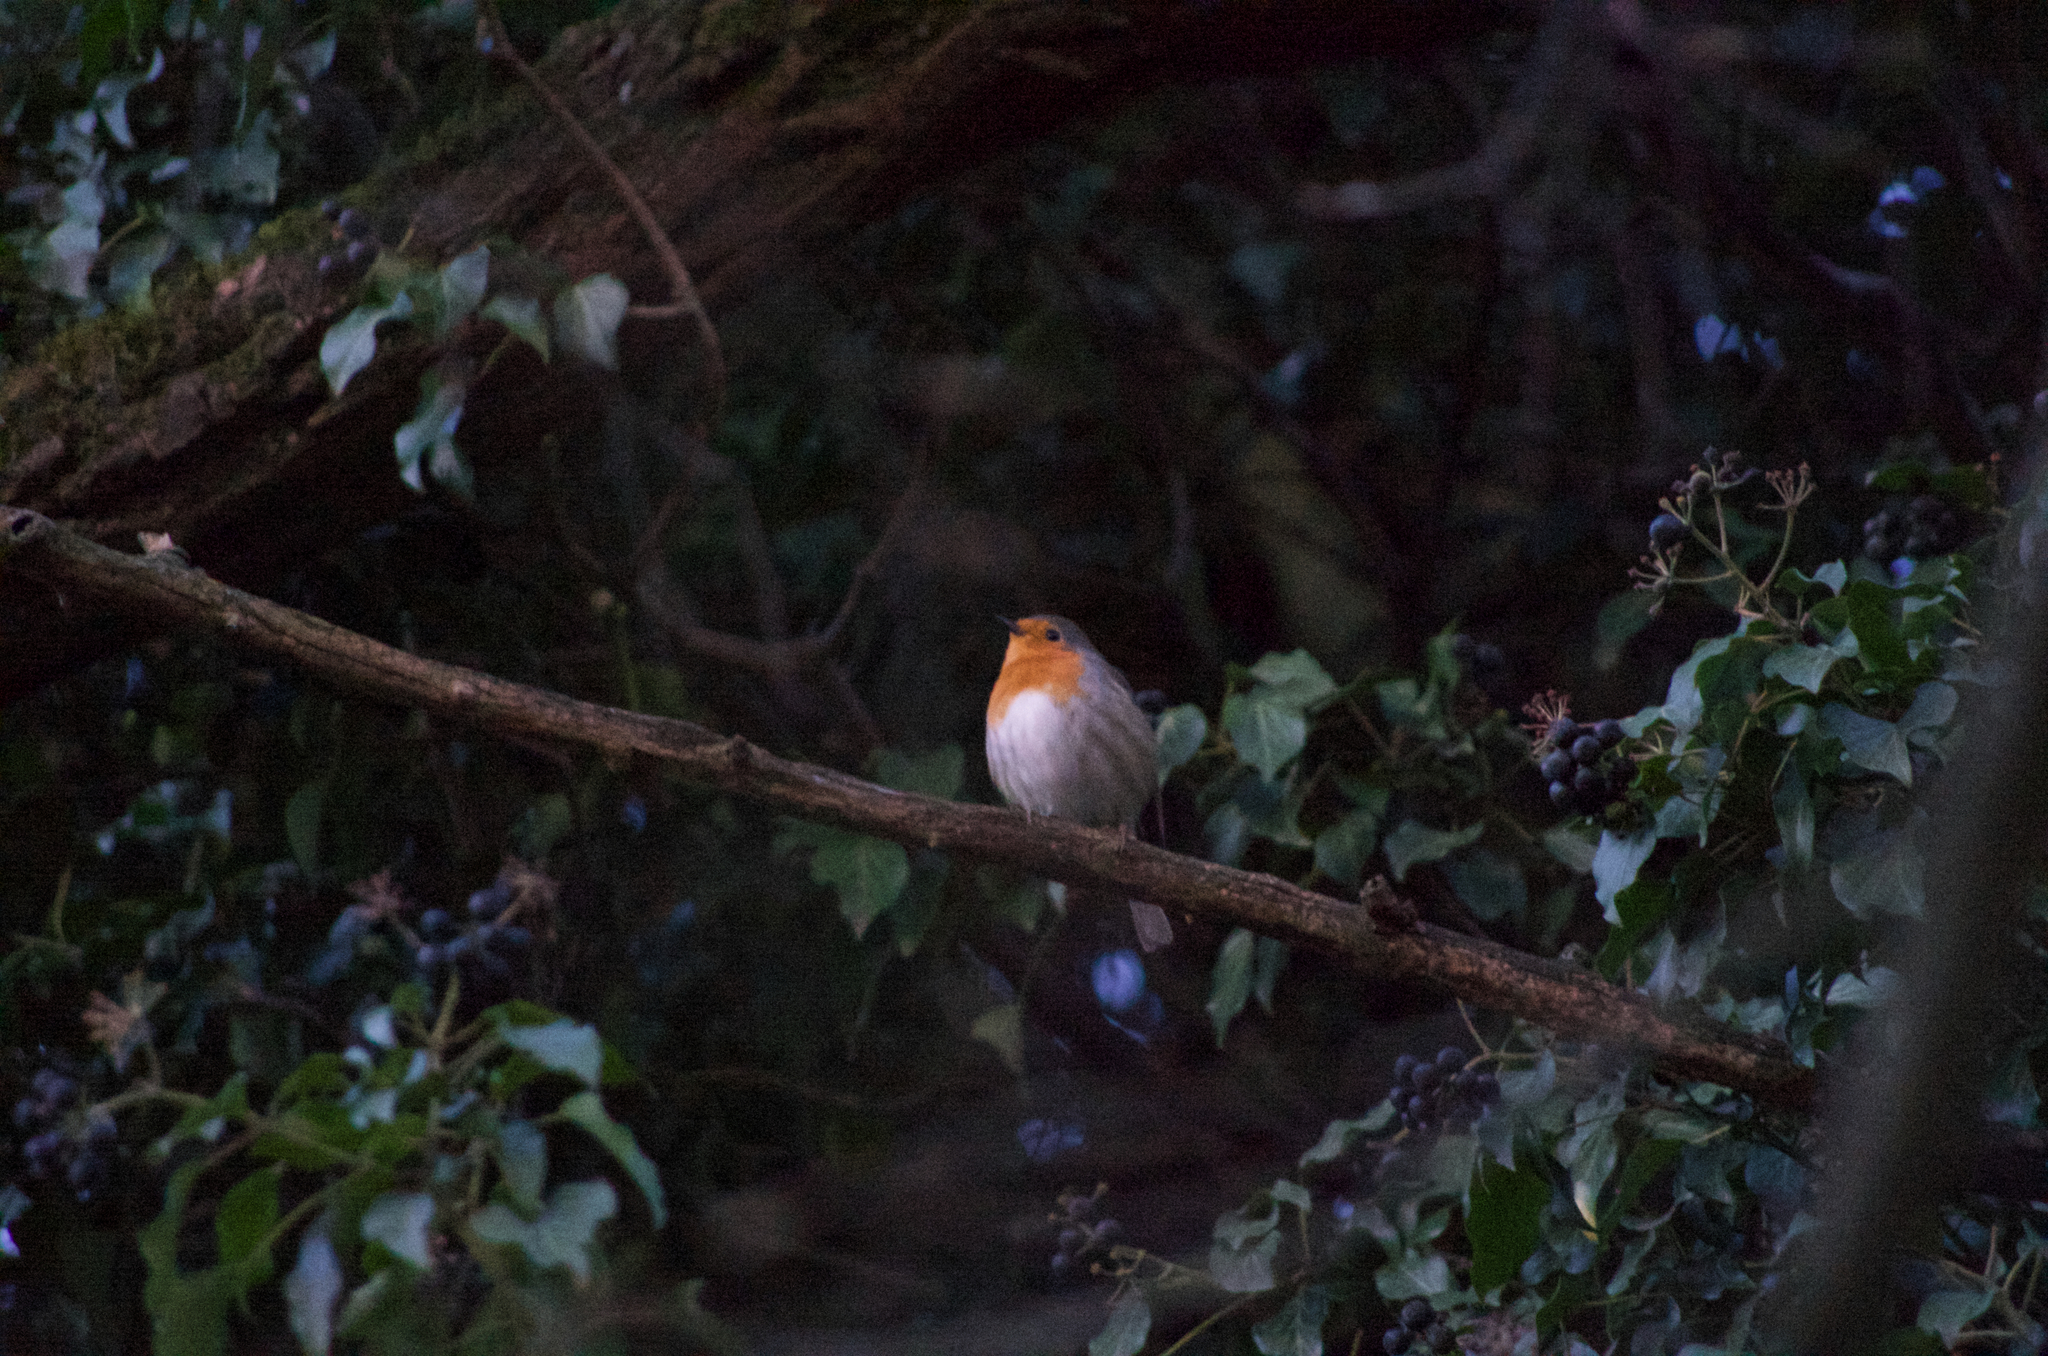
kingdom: Animalia
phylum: Chordata
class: Aves
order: Passeriformes
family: Muscicapidae
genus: Erithacus
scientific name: Erithacus rubecula
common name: European robin
